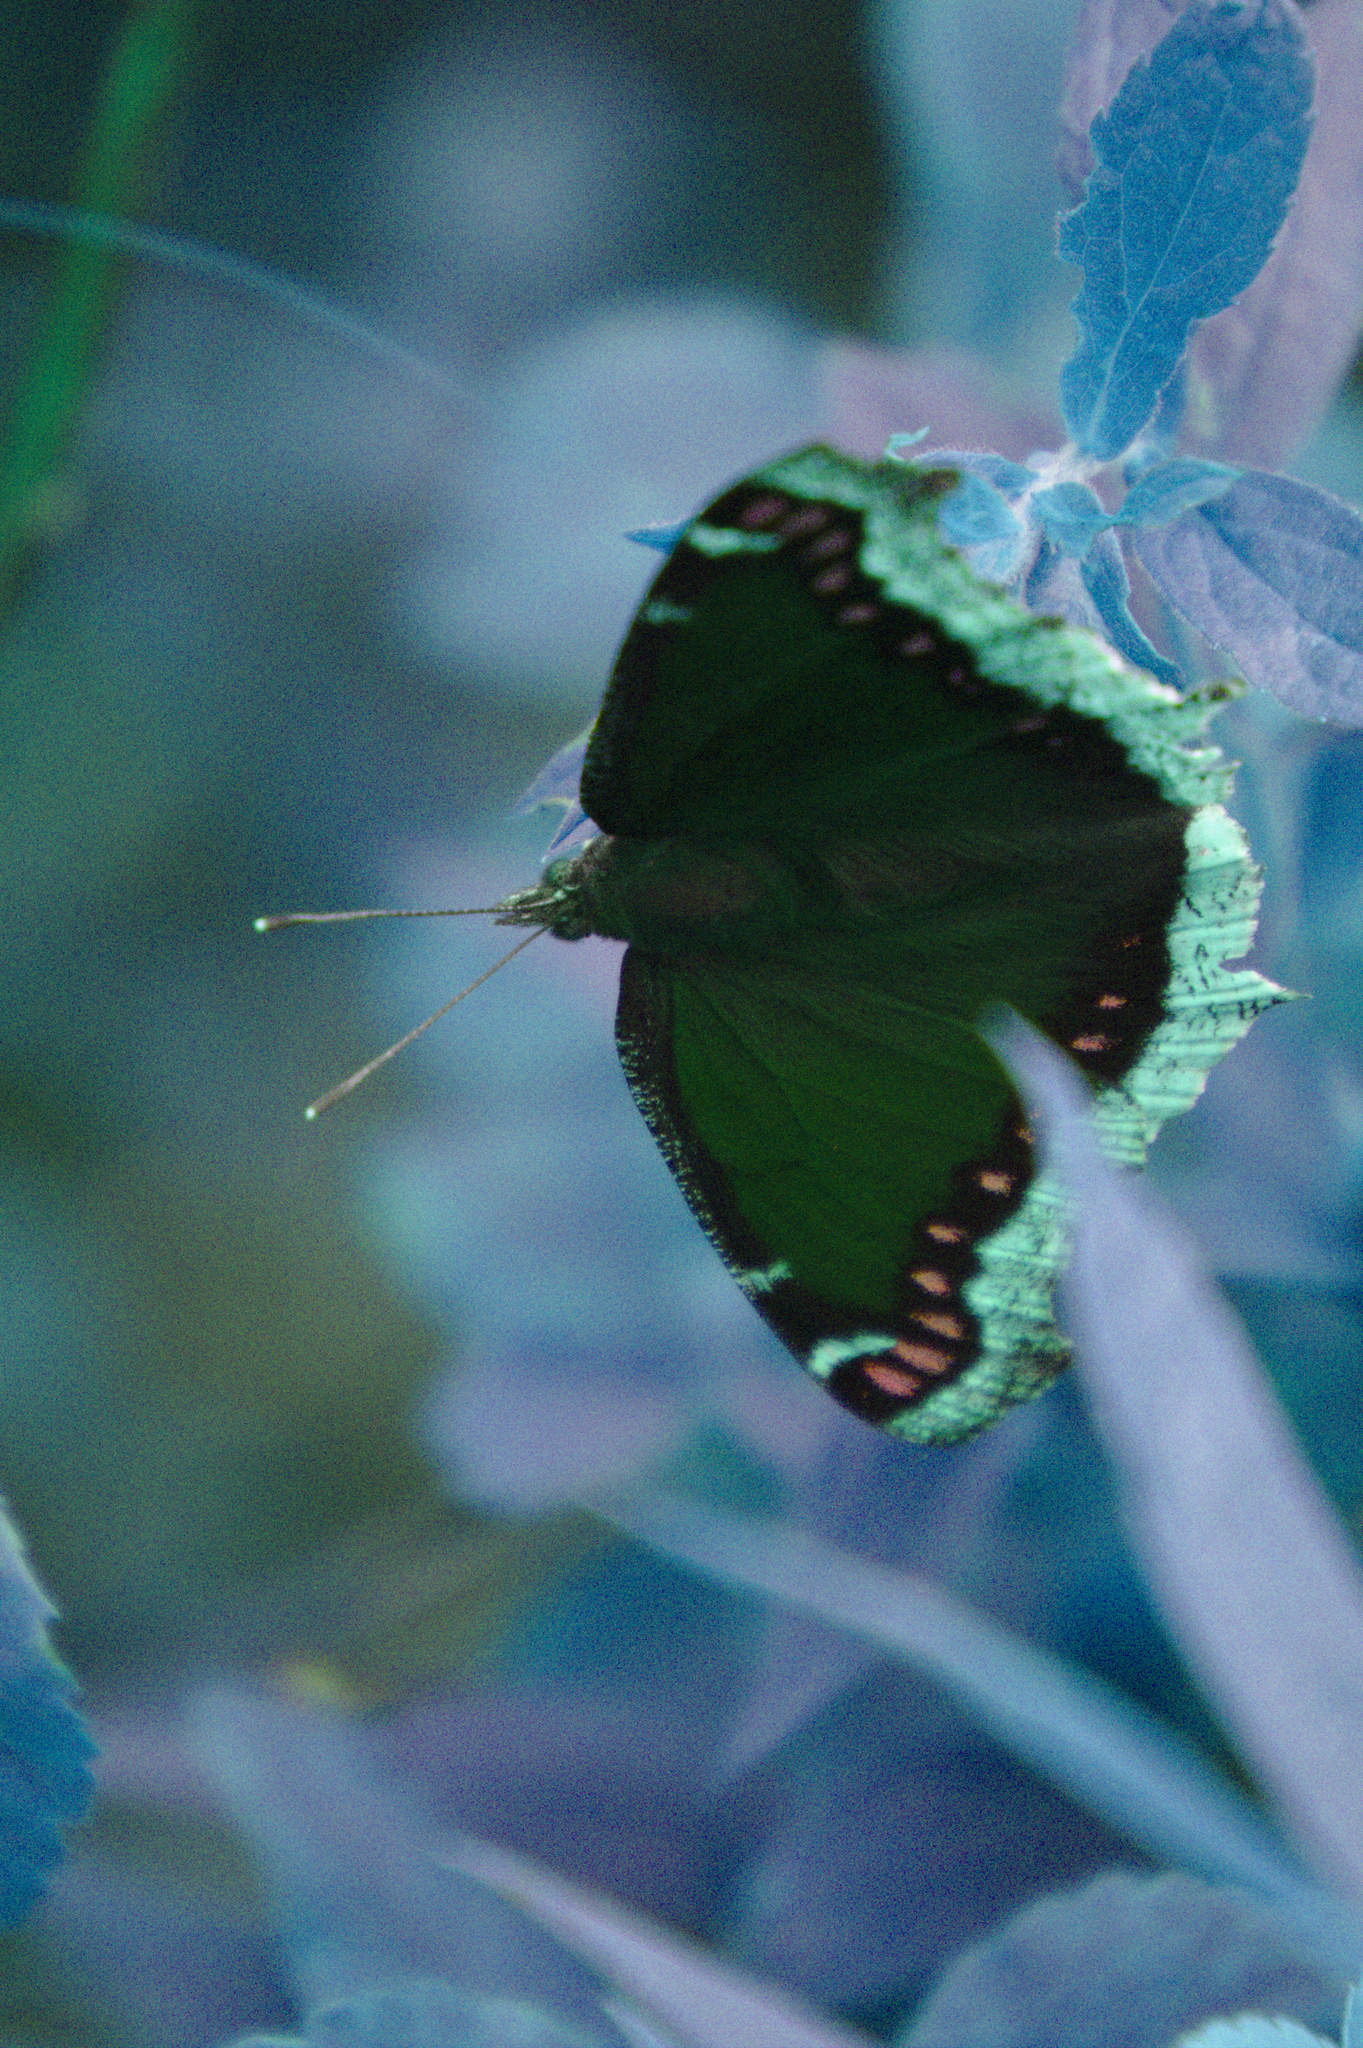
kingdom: Animalia
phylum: Arthropoda
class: Insecta
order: Lepidoptera
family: Nymphalidae
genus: Nymphalis
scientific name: Nymphalis antiopa
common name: Camberwell beauty
